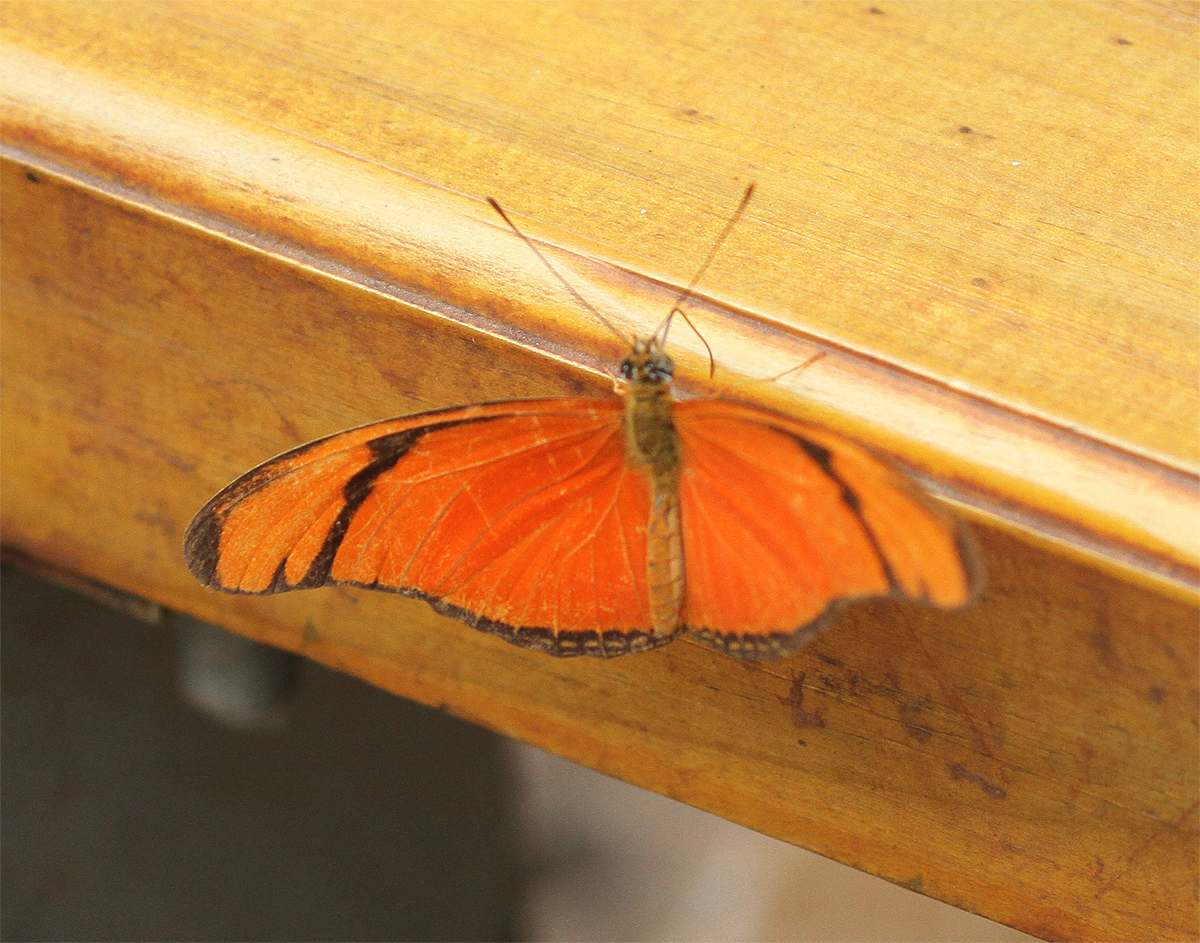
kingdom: Animalia
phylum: Arthropoda
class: Insecta
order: Lepidoptera
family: Nymphalidae
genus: Dryas
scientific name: Dryas iulia
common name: Flambeau
